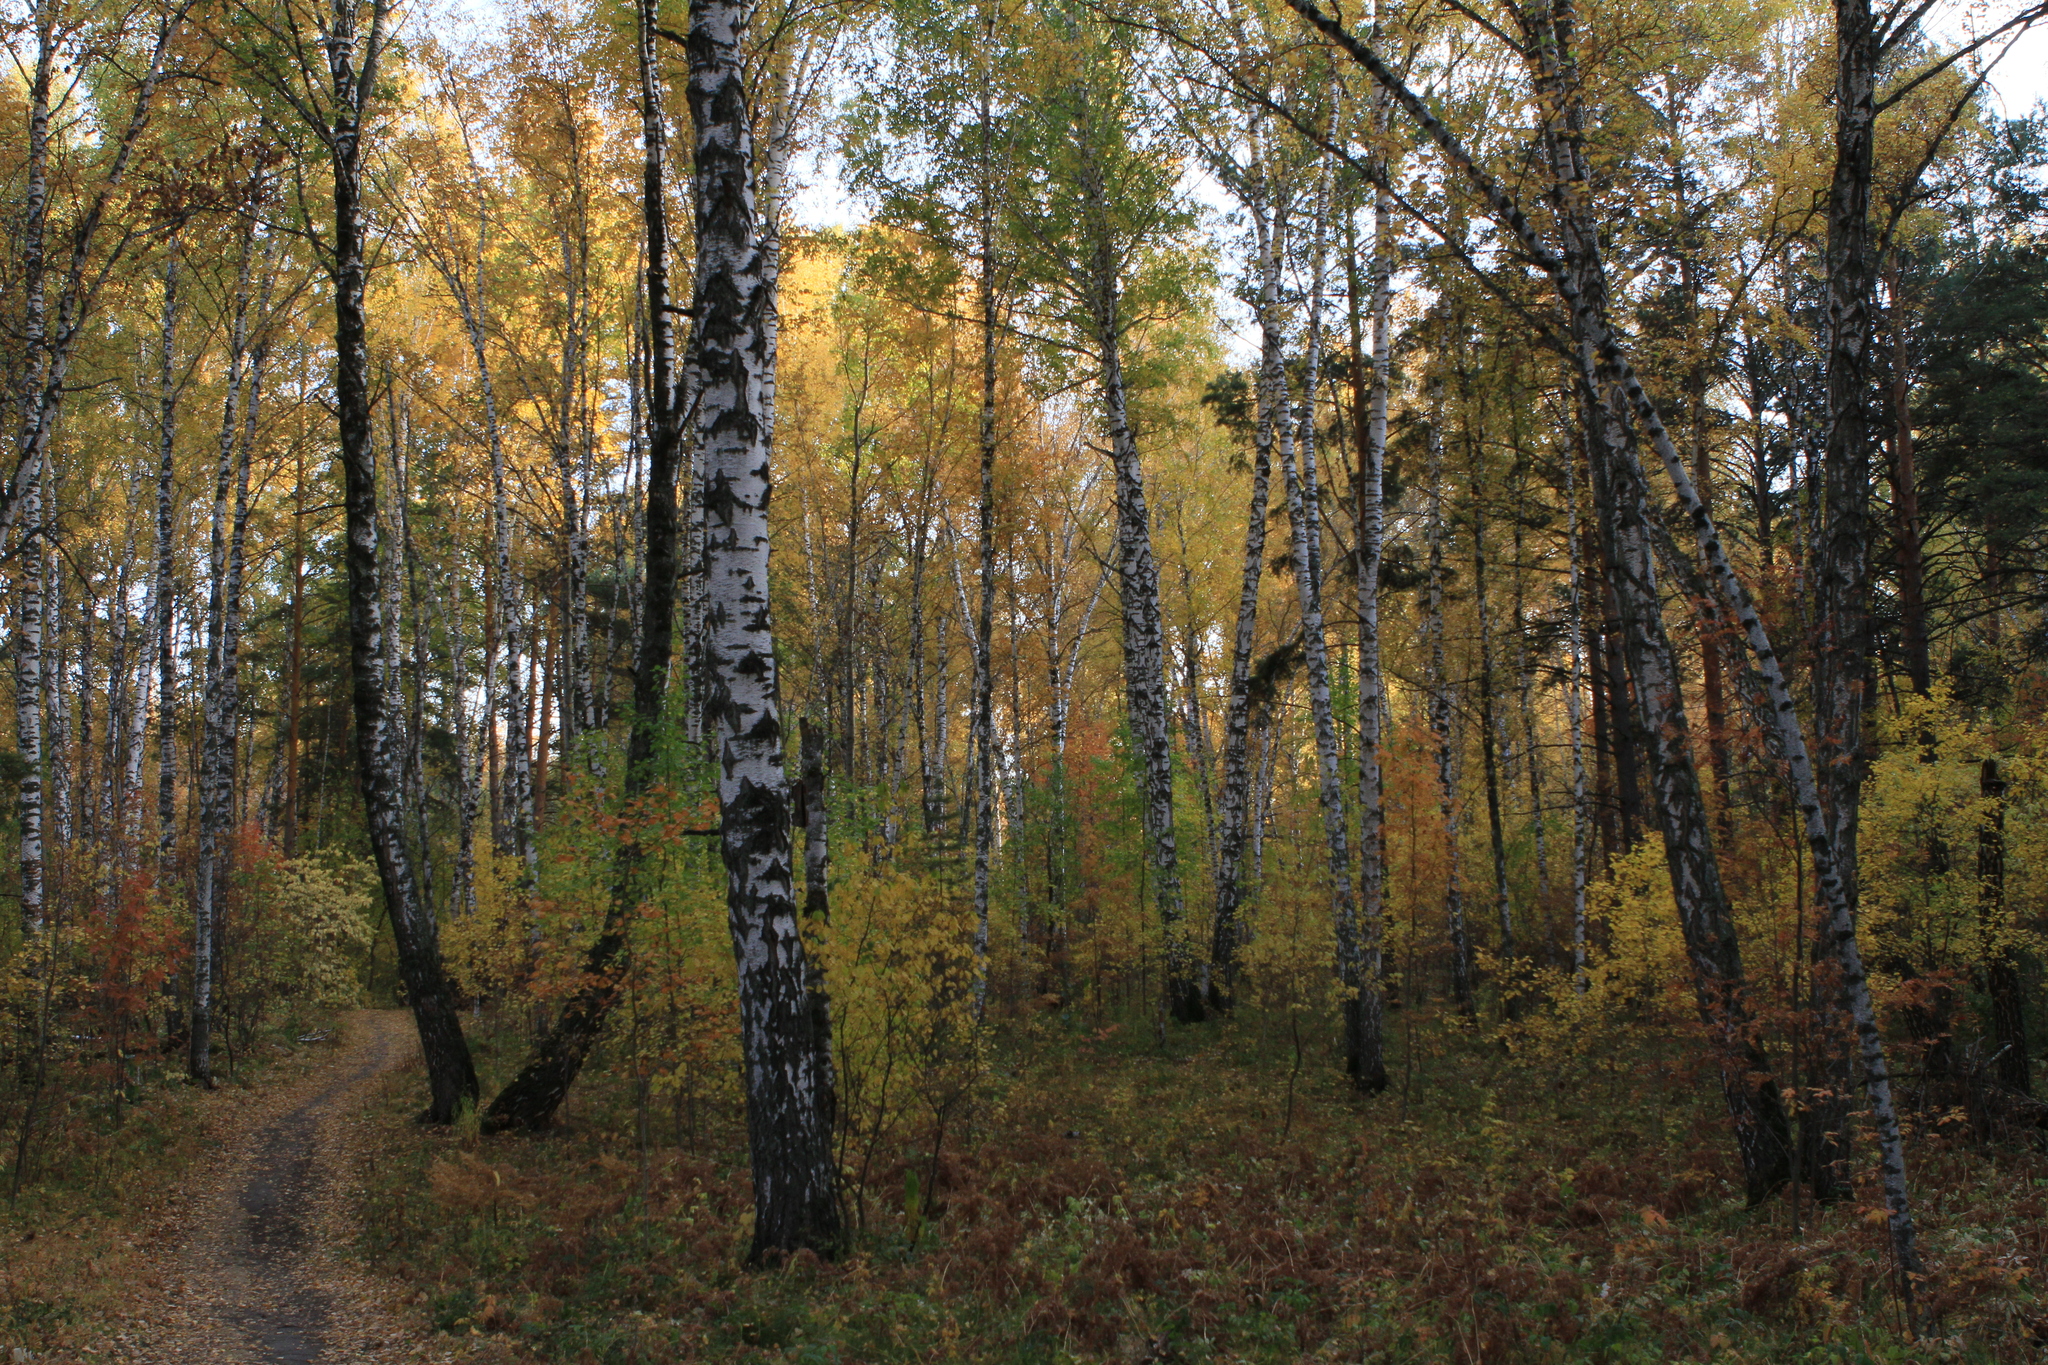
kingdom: Plantae
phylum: Tracheophyta
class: Magnoliopsida
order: Fagales
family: Betulaceae
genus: Betula
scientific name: Betula pendula
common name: Silver birch
